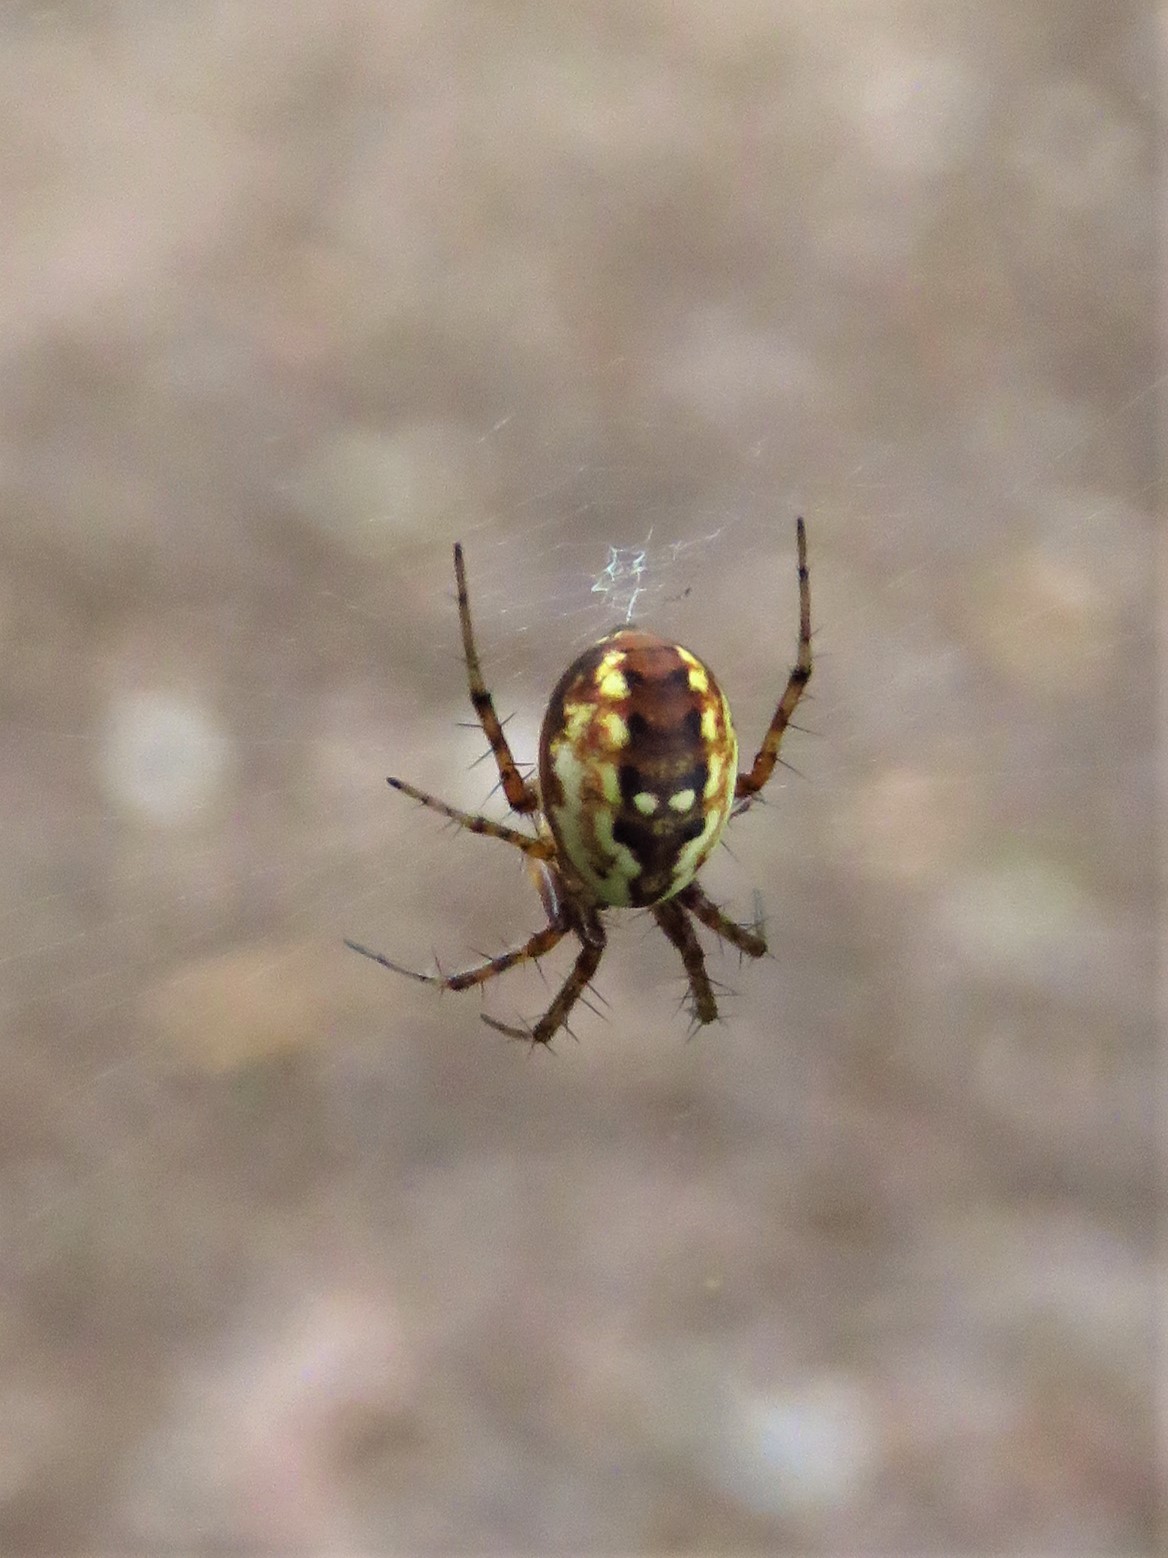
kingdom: Animalia
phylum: Arthropoda
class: Arachnida
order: Araneae
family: Araneidae
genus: Mangora
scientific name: Mangora placida
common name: Tuft-legged orbweaver
